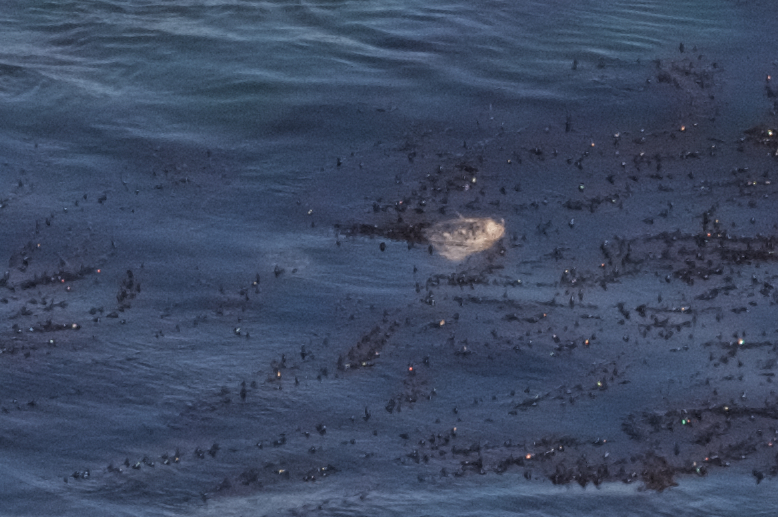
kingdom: Animalia
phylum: Chordata
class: Mammalia
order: Carnivora
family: Phocidae
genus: Phoca
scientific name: Phoca vitulina
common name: Harbor seal
